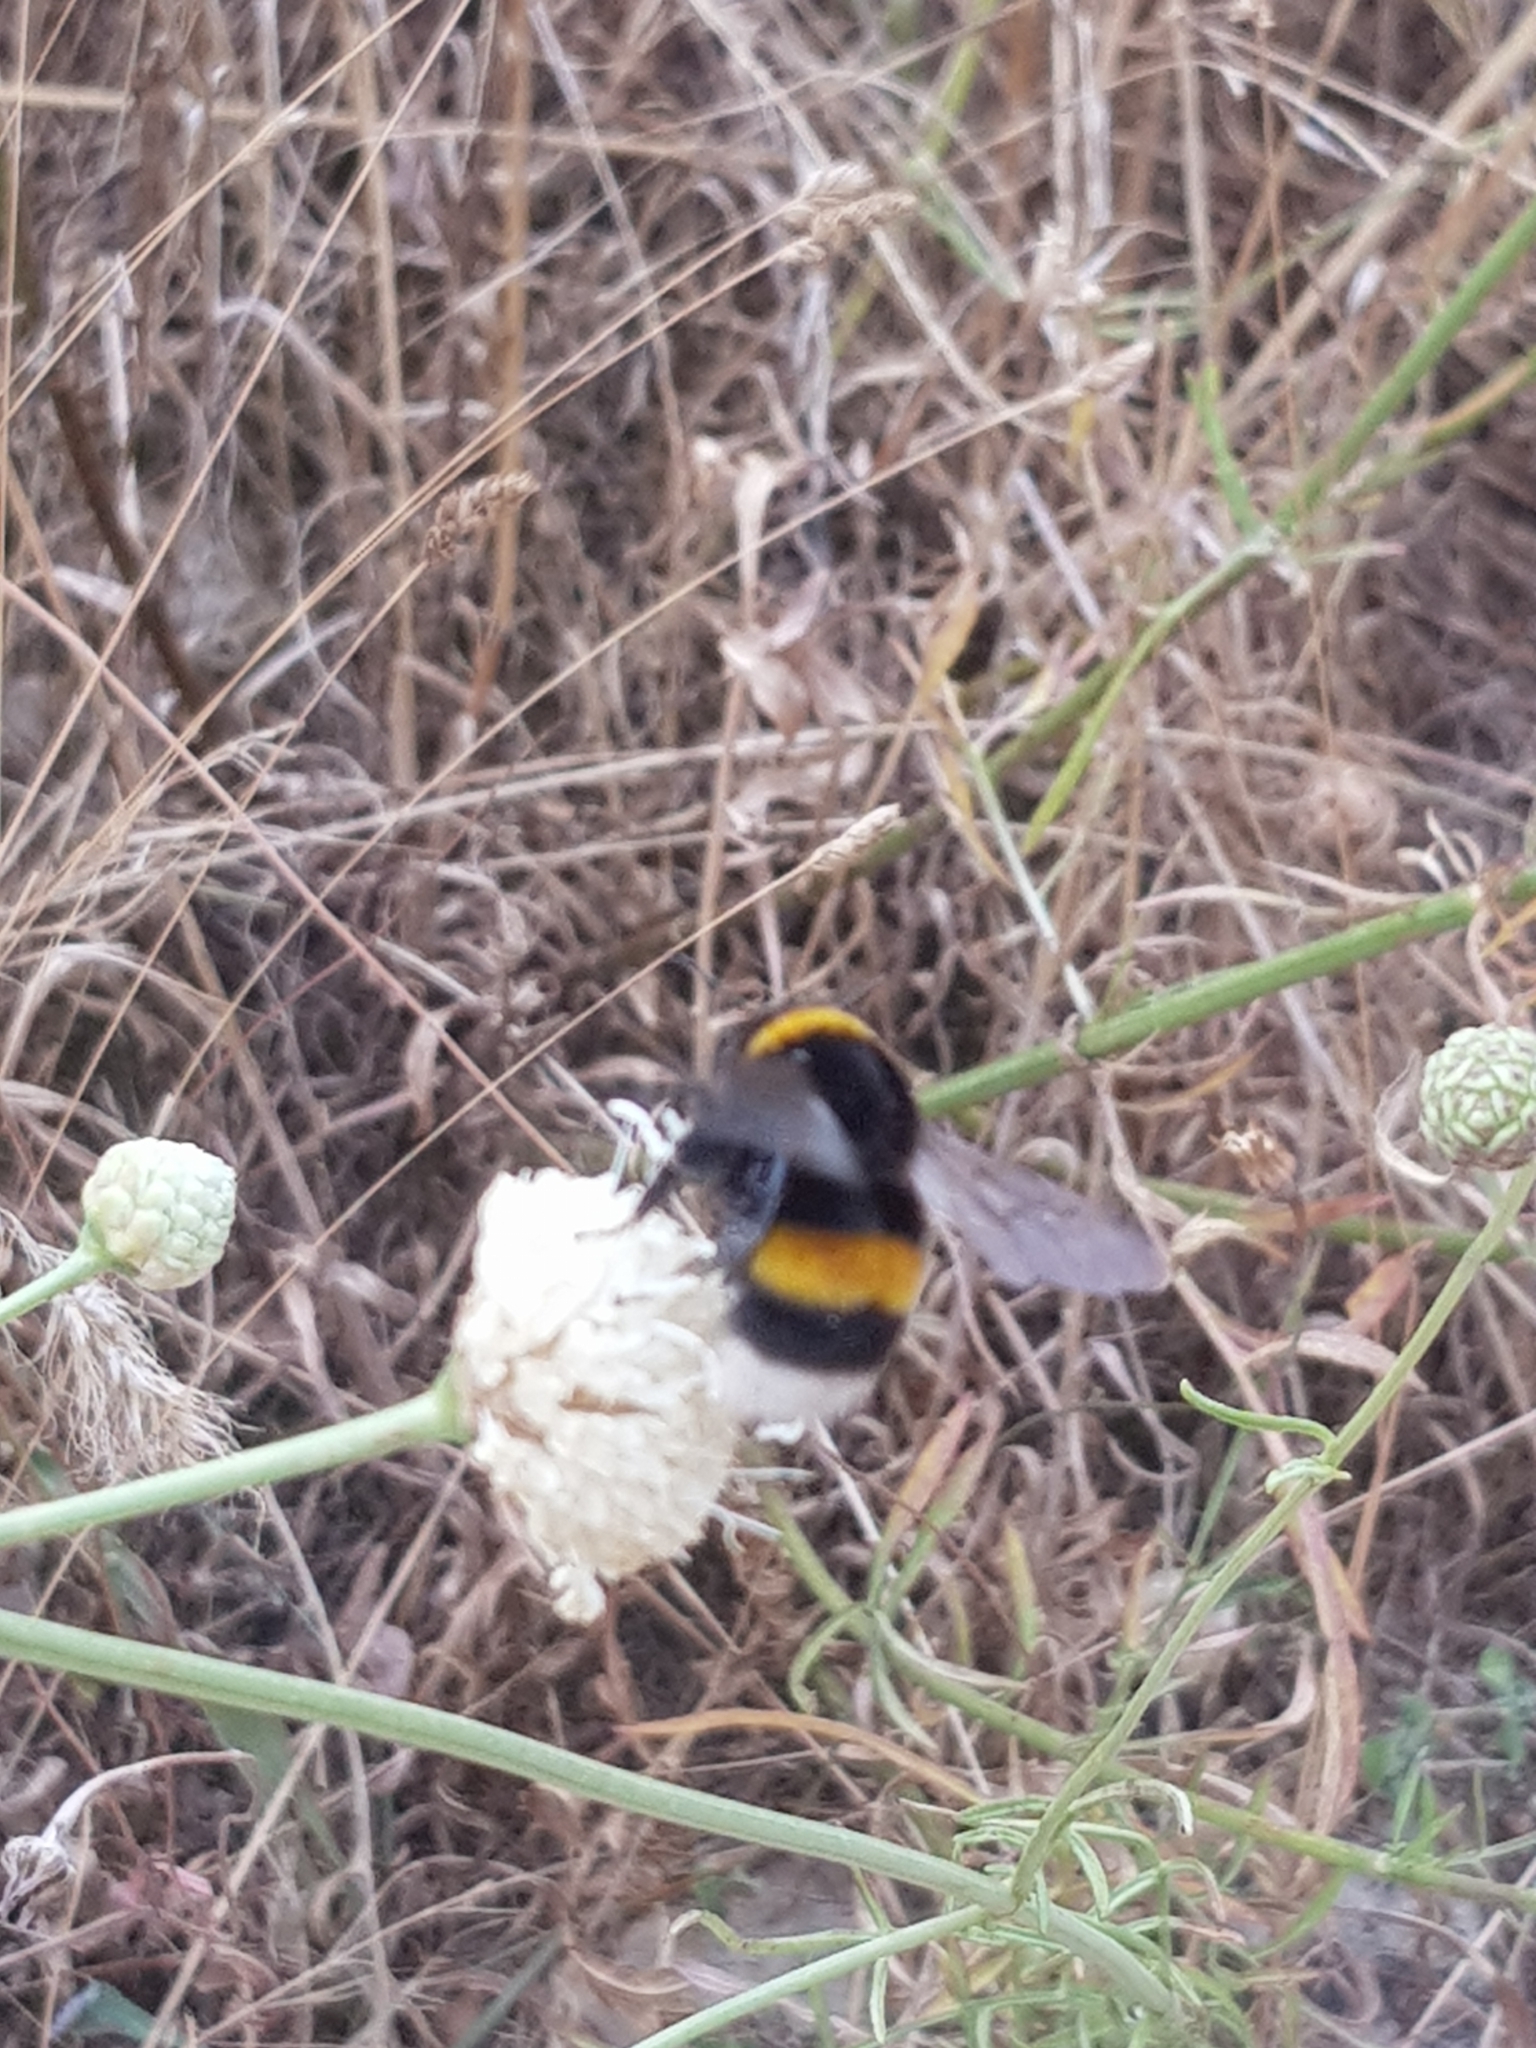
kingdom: Animalia
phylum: Arthropoda
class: Insecta
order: Hymenoptera
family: Apidae
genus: Bombus
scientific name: Bombus terrestris
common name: Buff-tailed bumblebee
